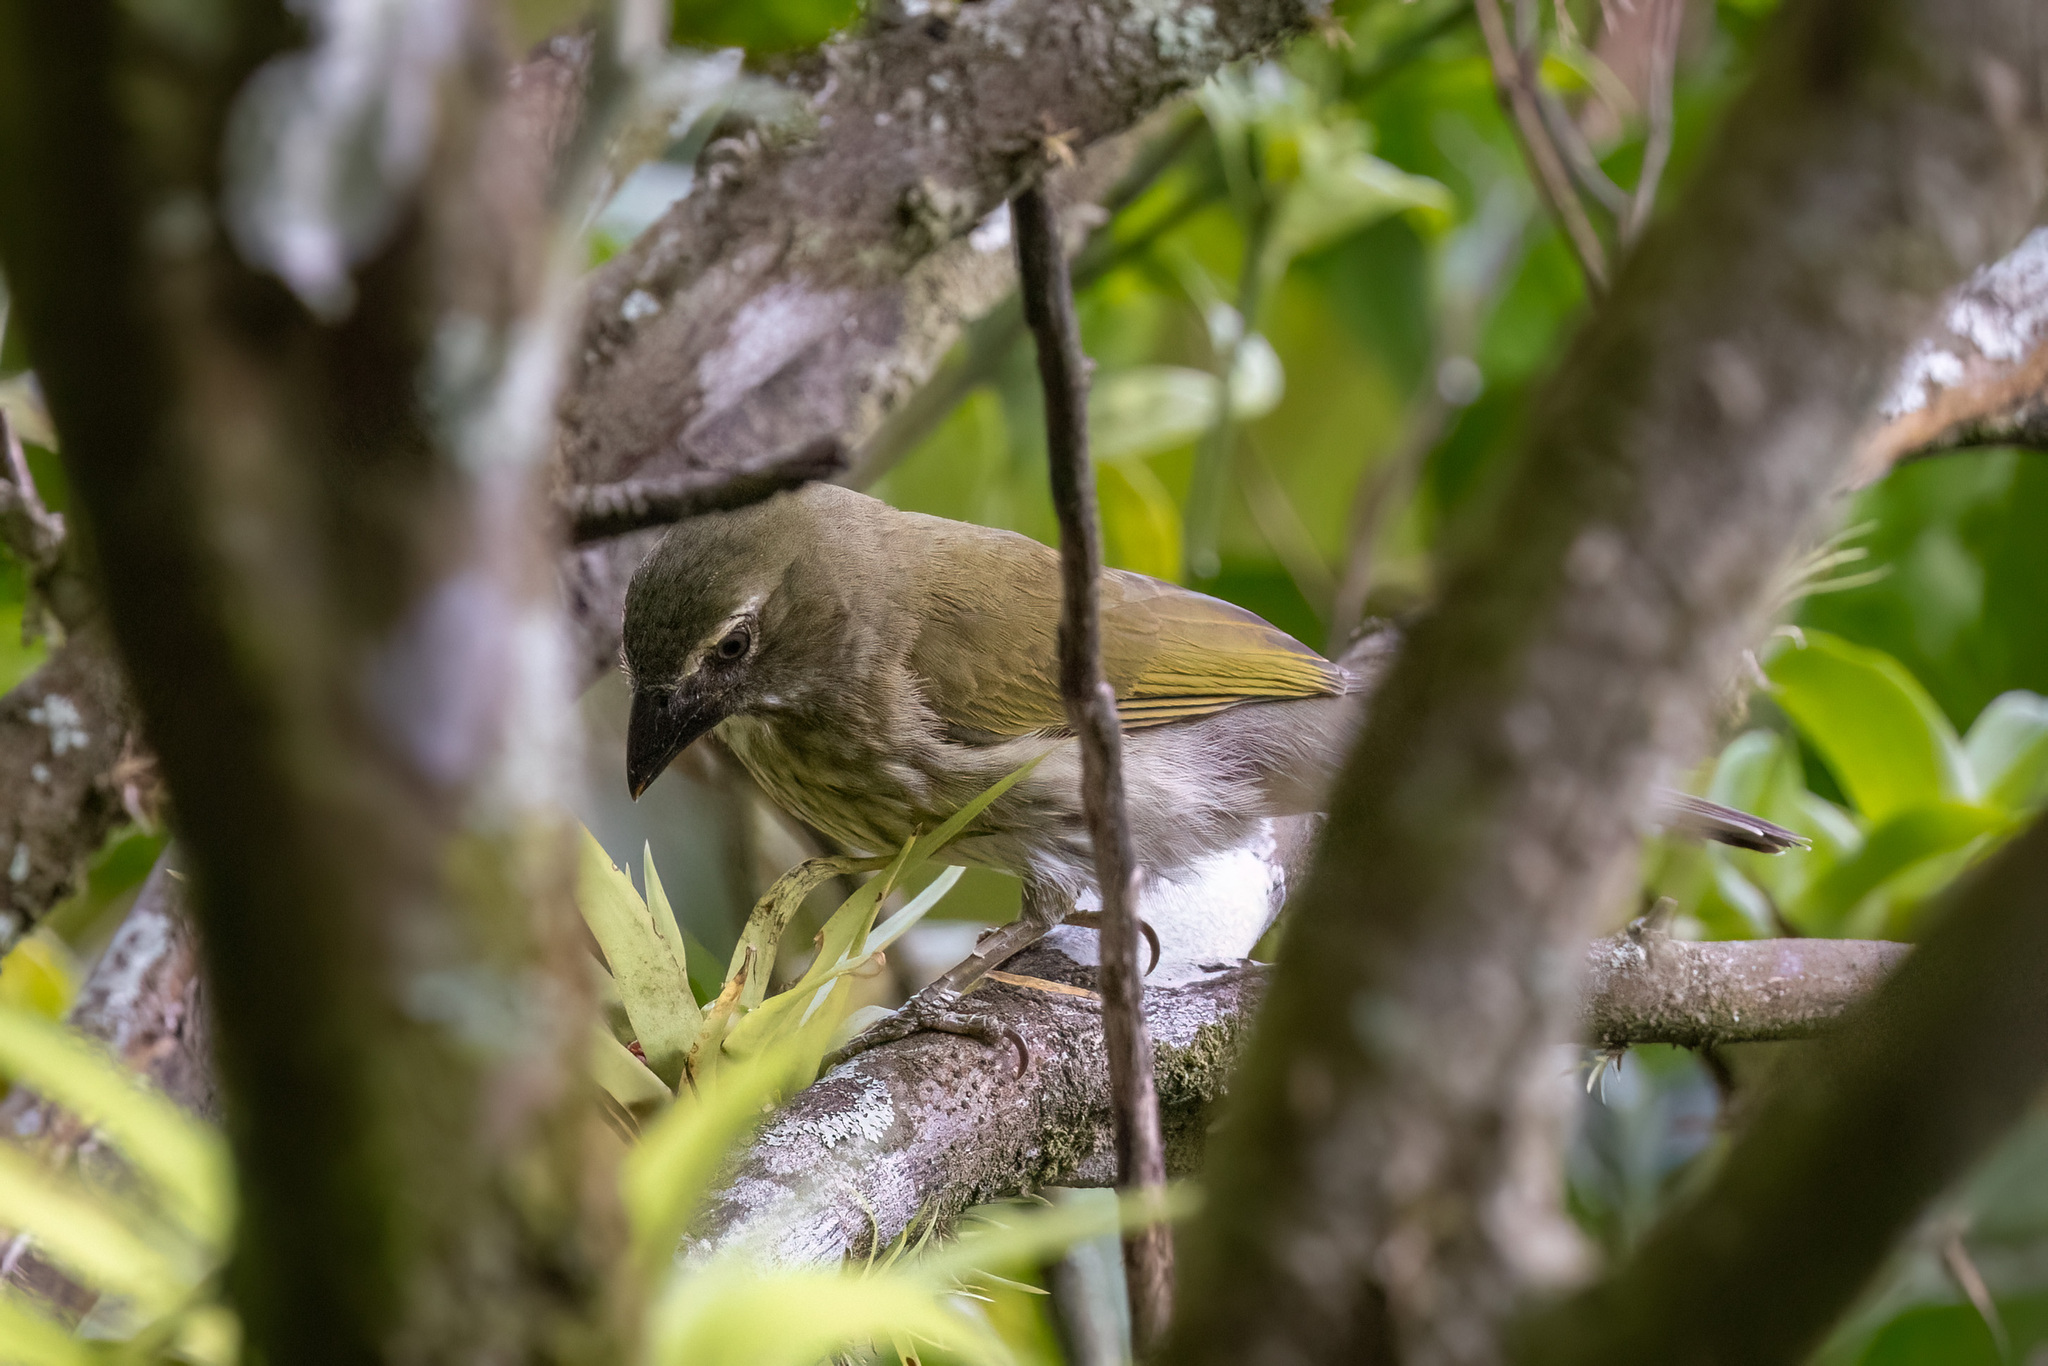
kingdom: Animalia
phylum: Chordata
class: Aves
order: Passeriformes
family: Thraupidae
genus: Saltator
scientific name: Saltator striatipectus
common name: Streaked saltator
